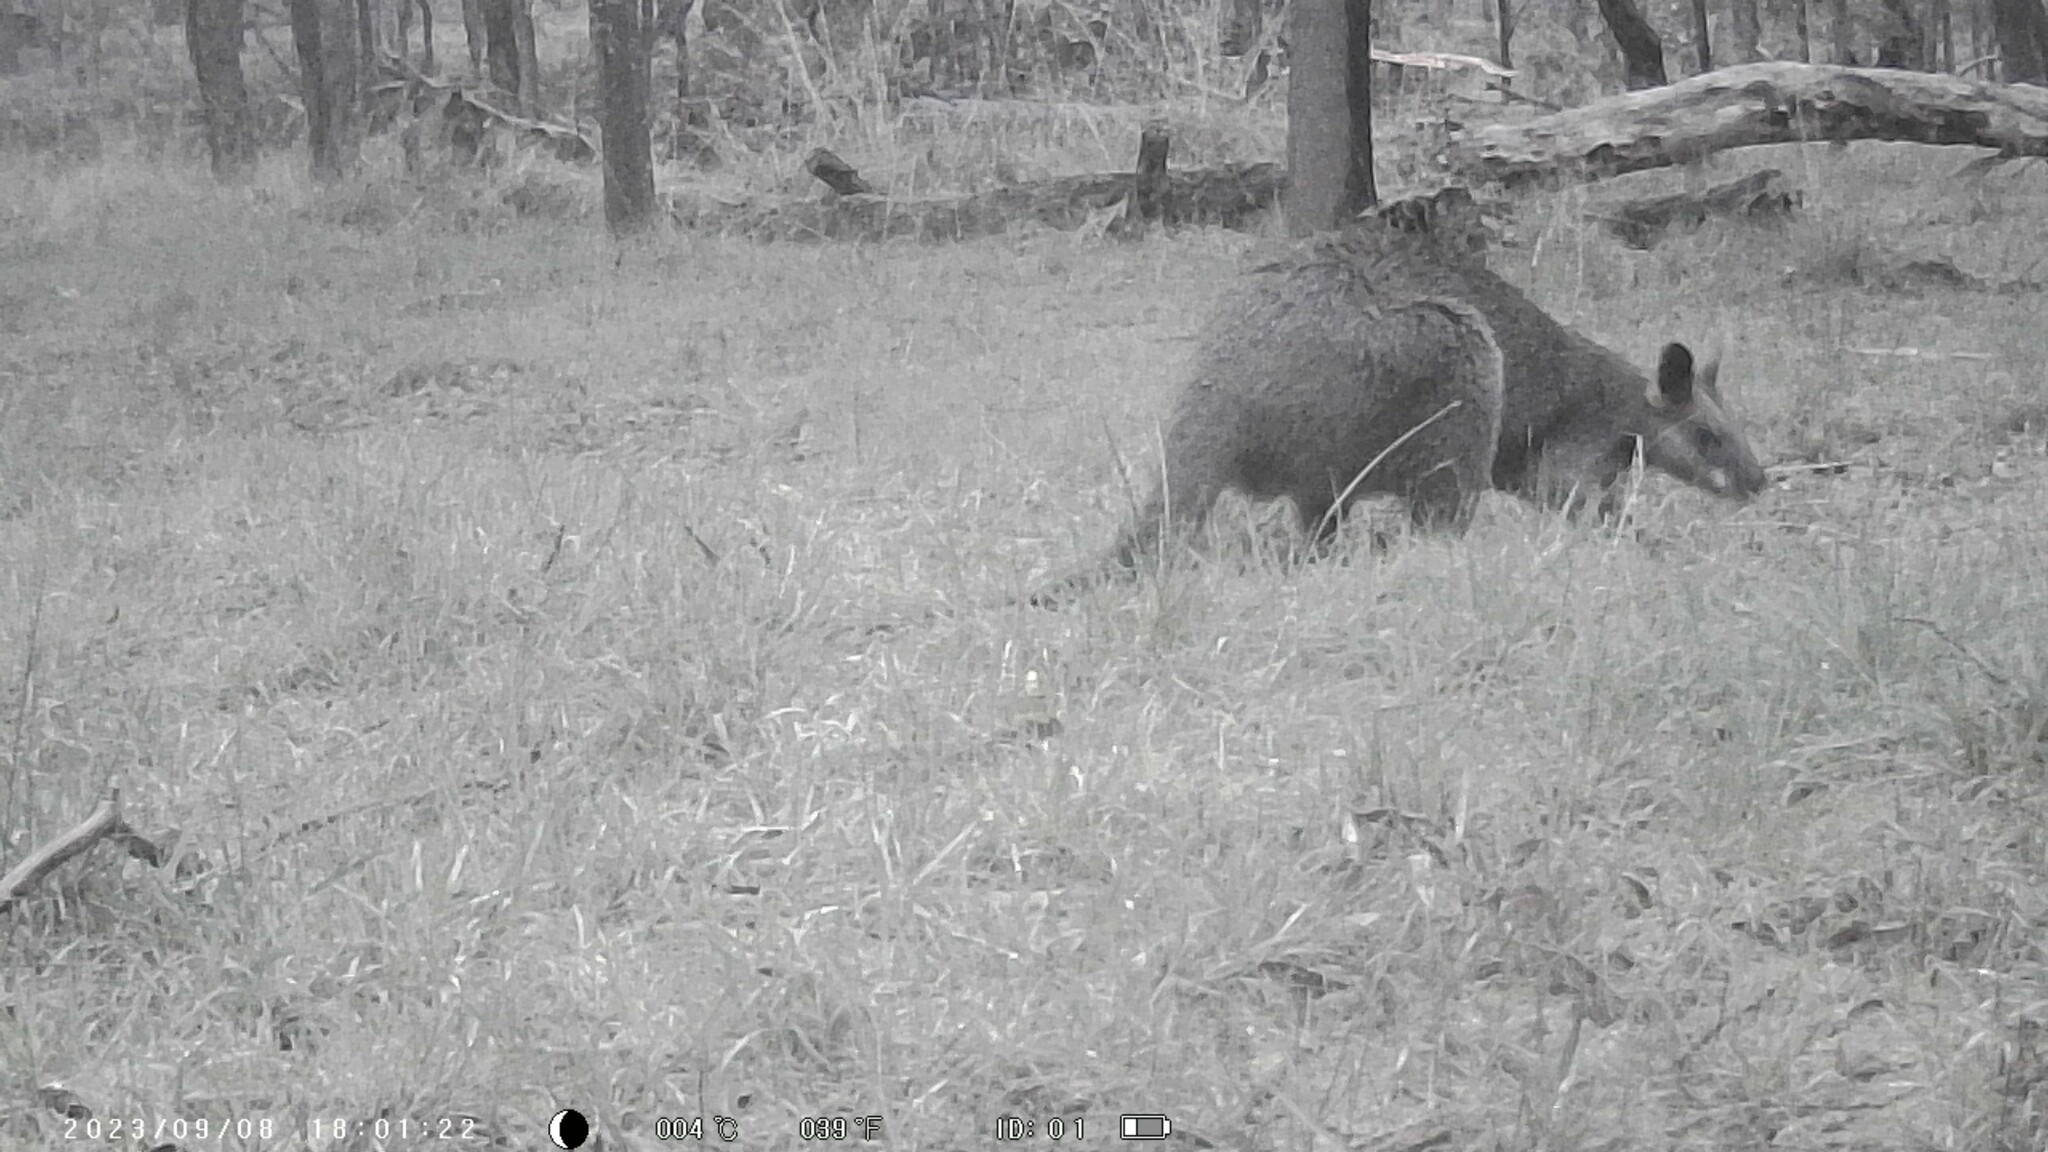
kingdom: Animalia
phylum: Chordata
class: Mammalia
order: Diprotodontia
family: Macropodidae
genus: Wallabia
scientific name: Wallabia bicolor
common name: Swamp wallaby
